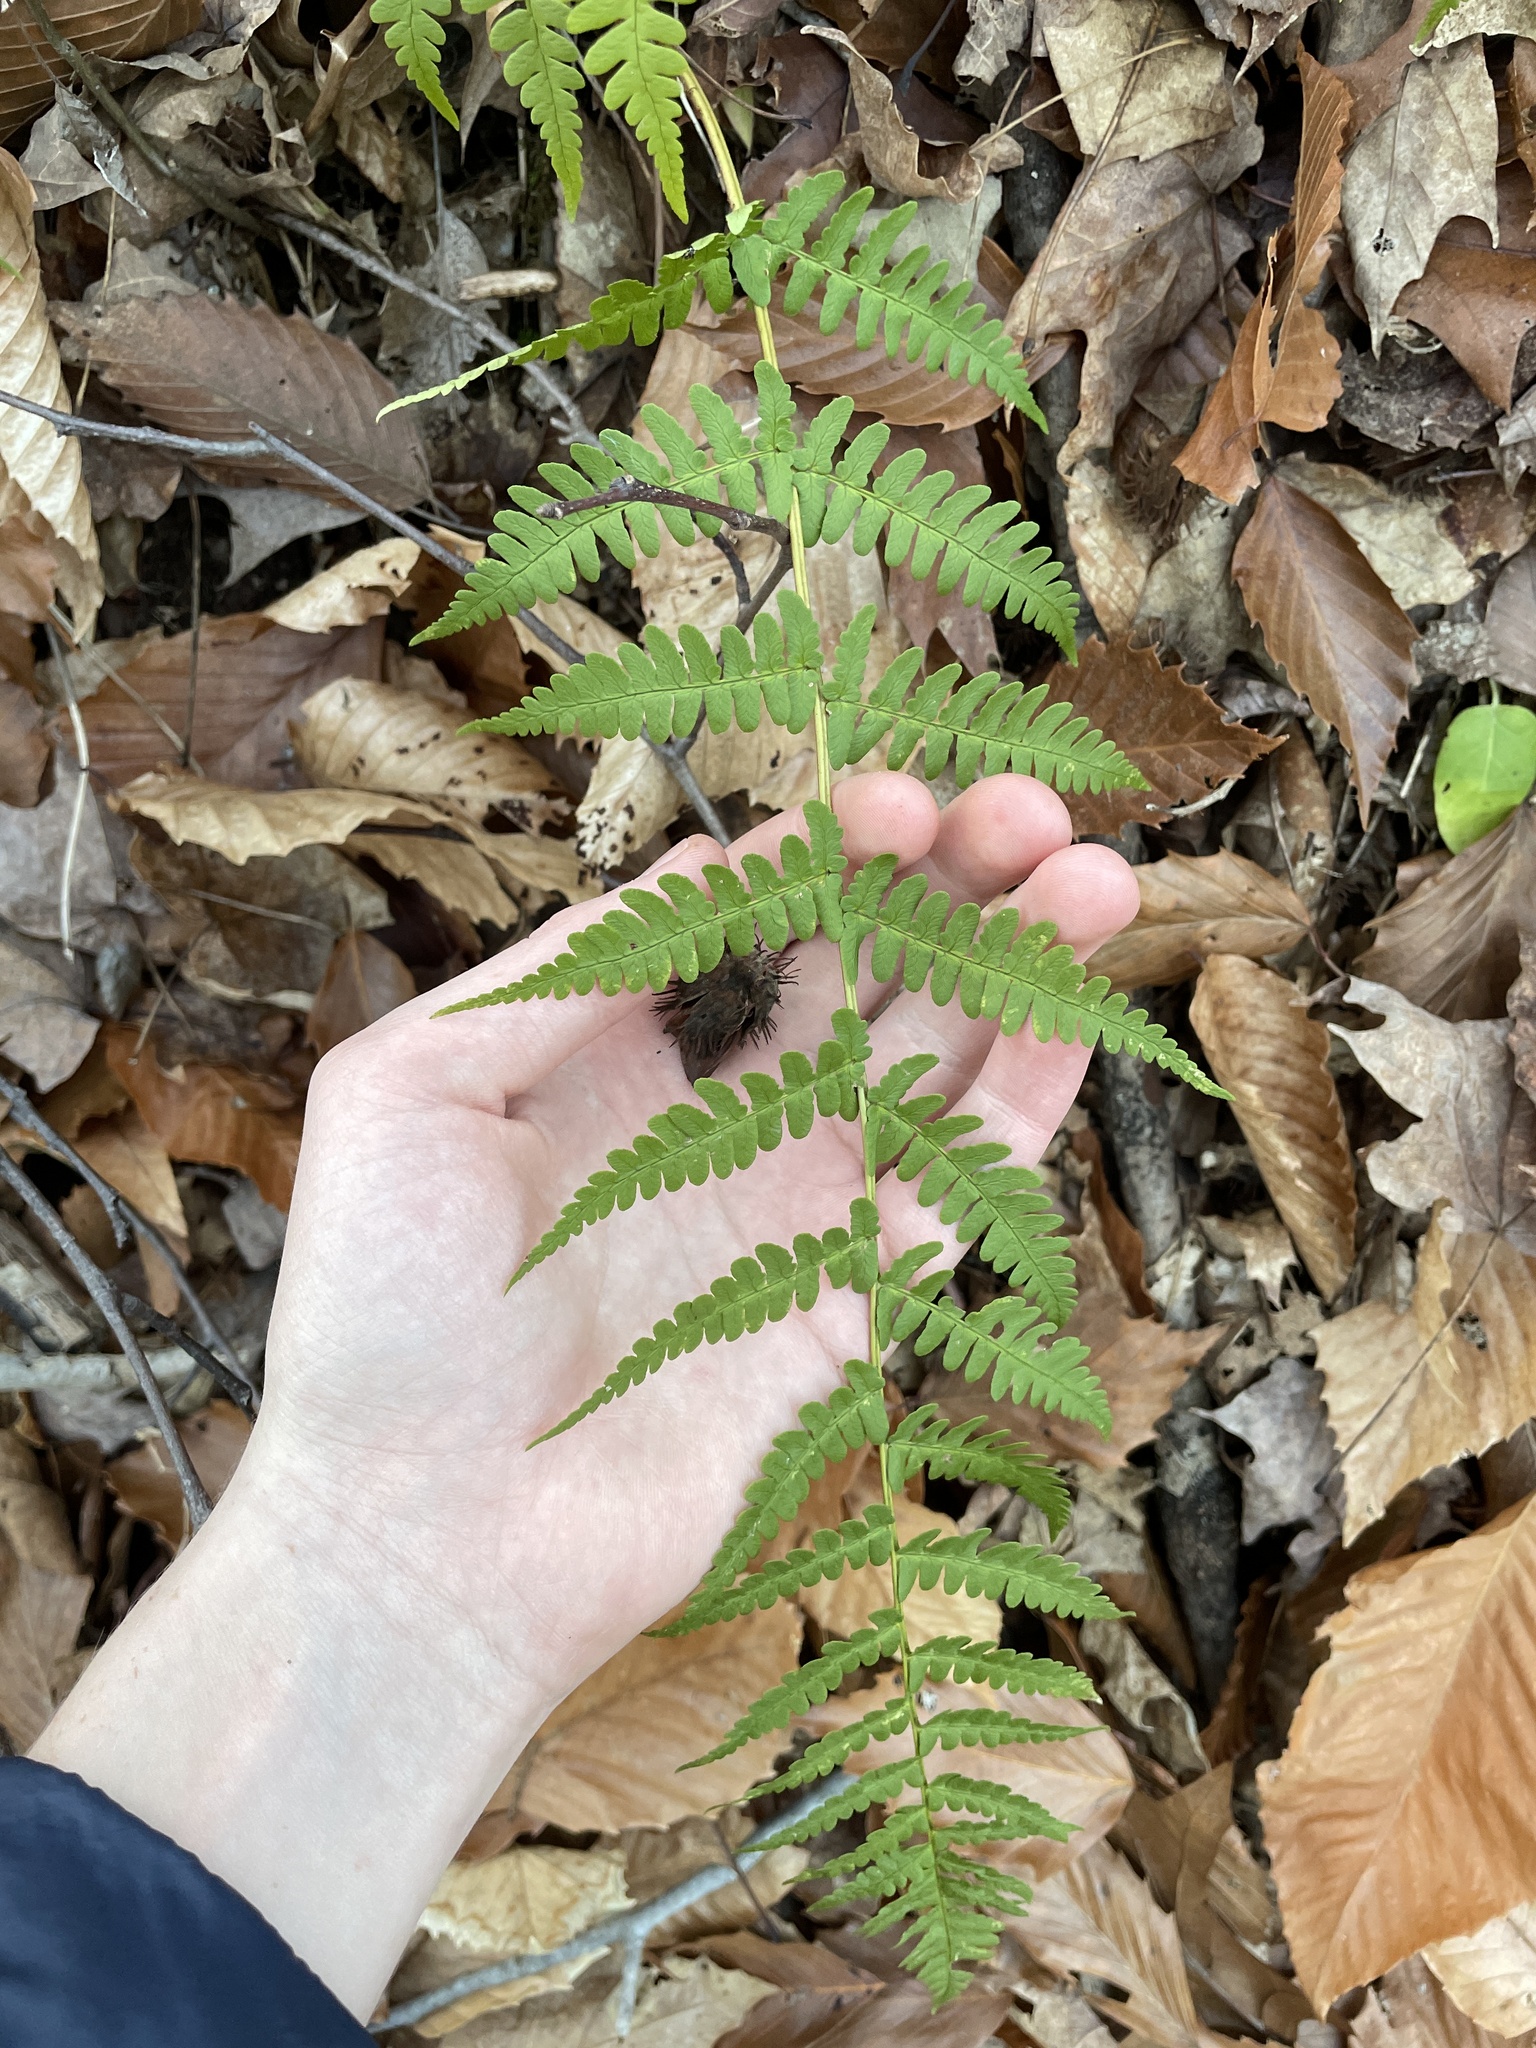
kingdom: Plantae
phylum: Tracheophyta
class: Polypodiopsida
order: Polypodiales
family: Dryopteridaceae
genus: Dryopteris
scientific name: Dryopteris marginalis
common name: Marginal wood fern
